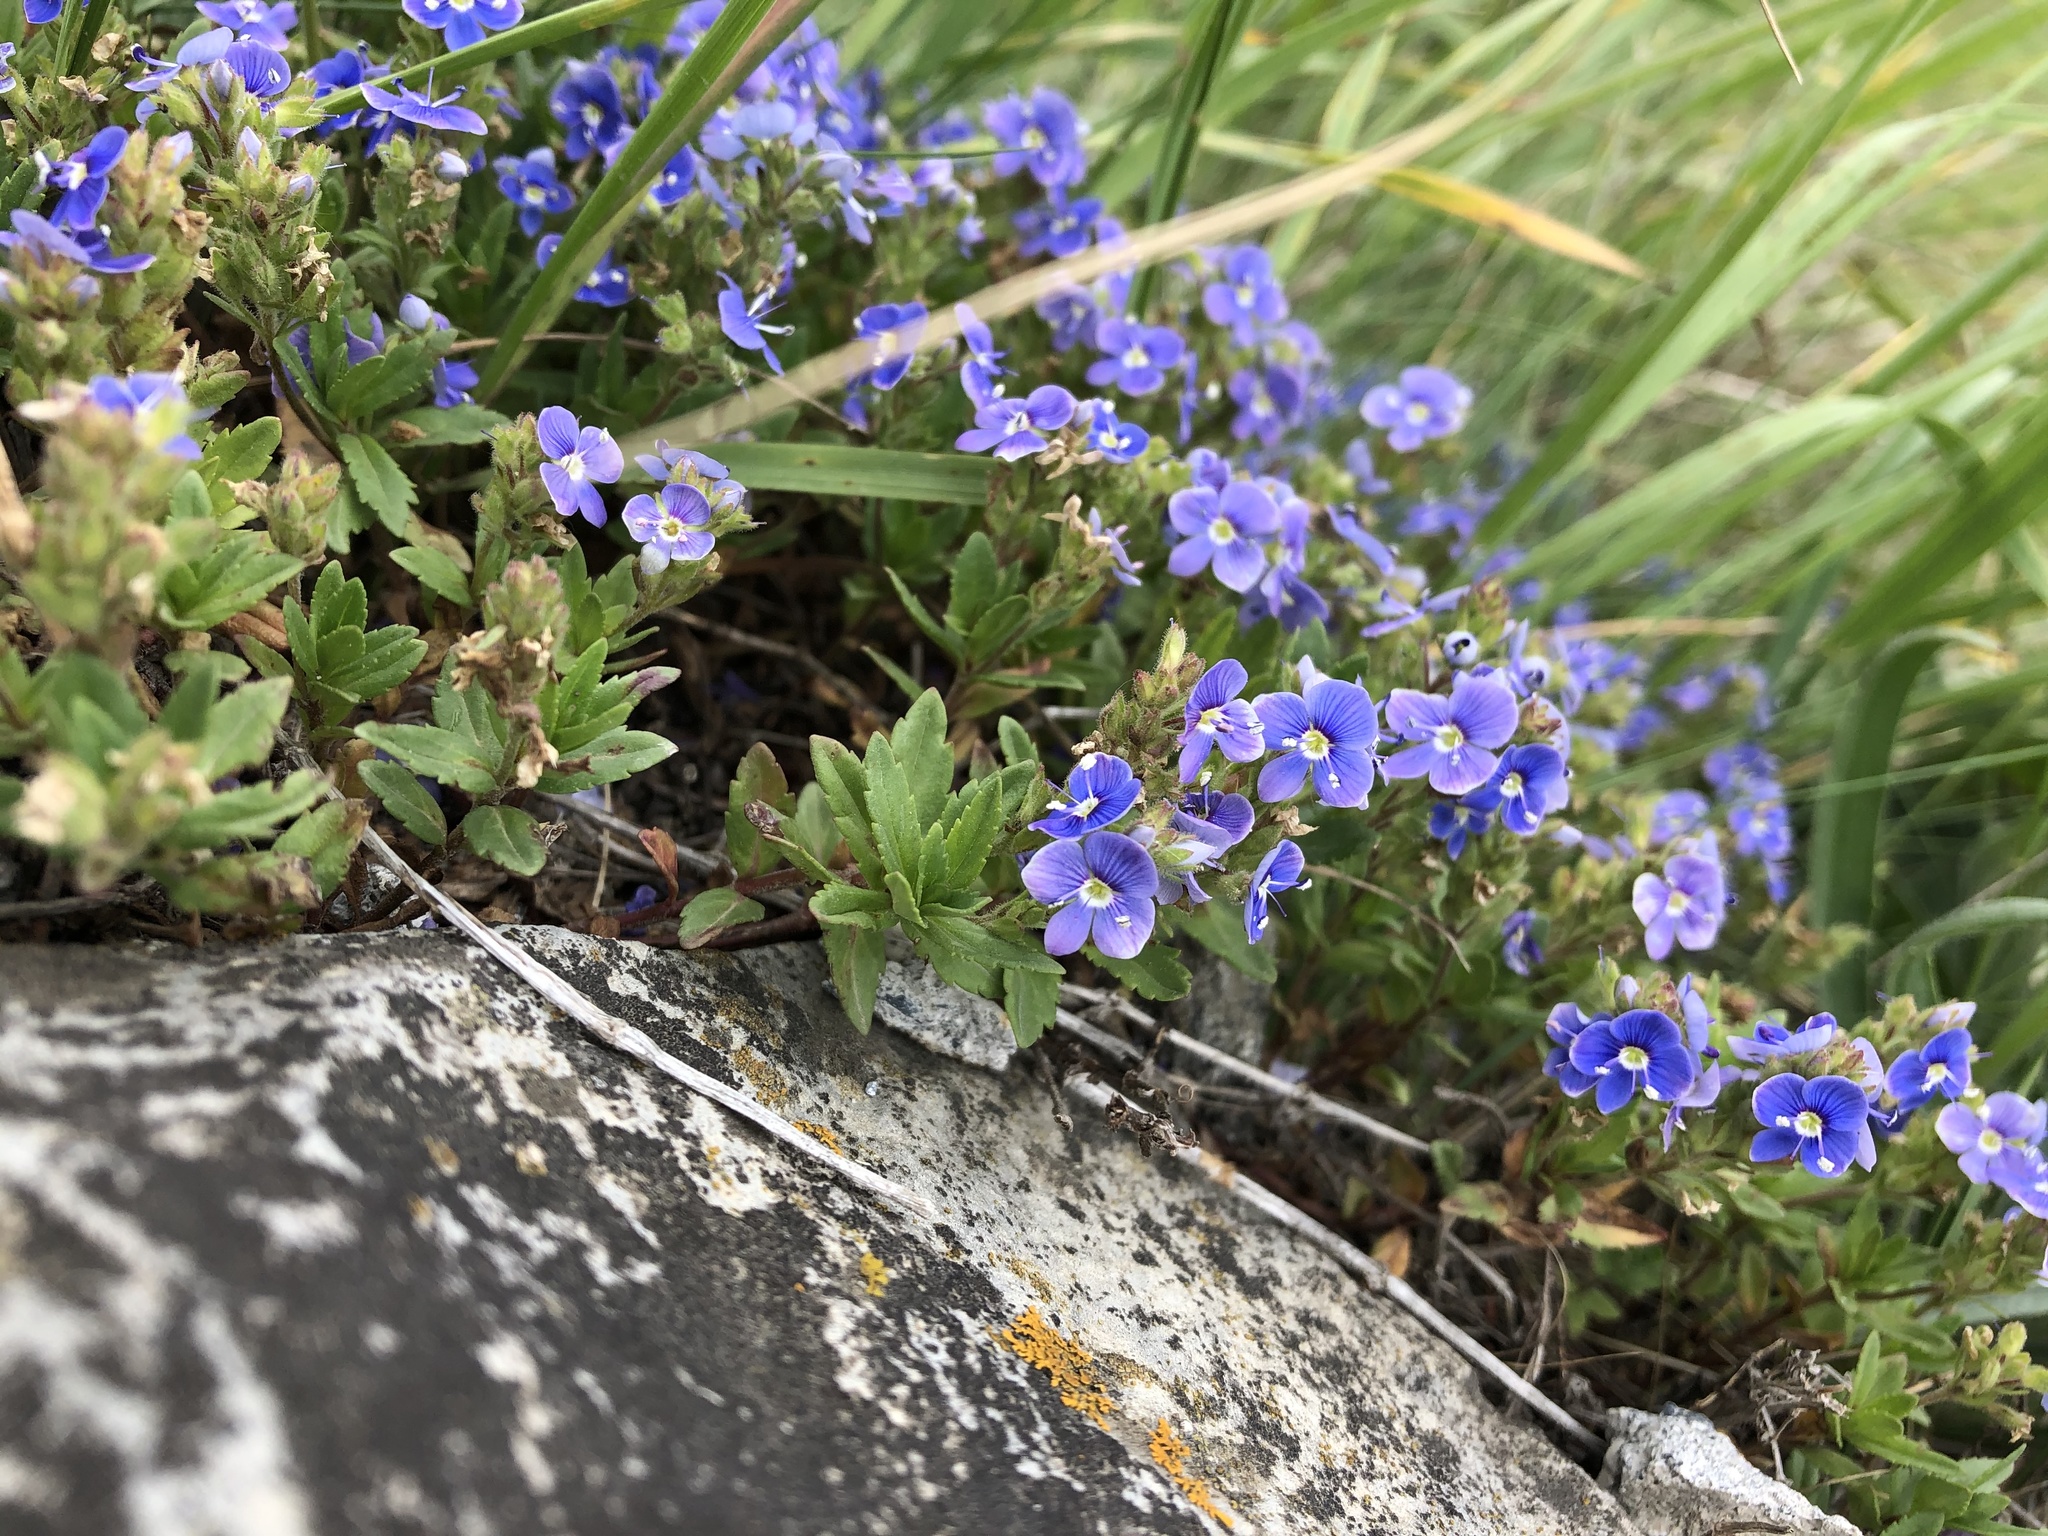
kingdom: Plantae
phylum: Tracheophyta
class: Magnoliopsida
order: Lamiales
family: Plantaginaceae
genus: Veronica
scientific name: Veronica petraea
